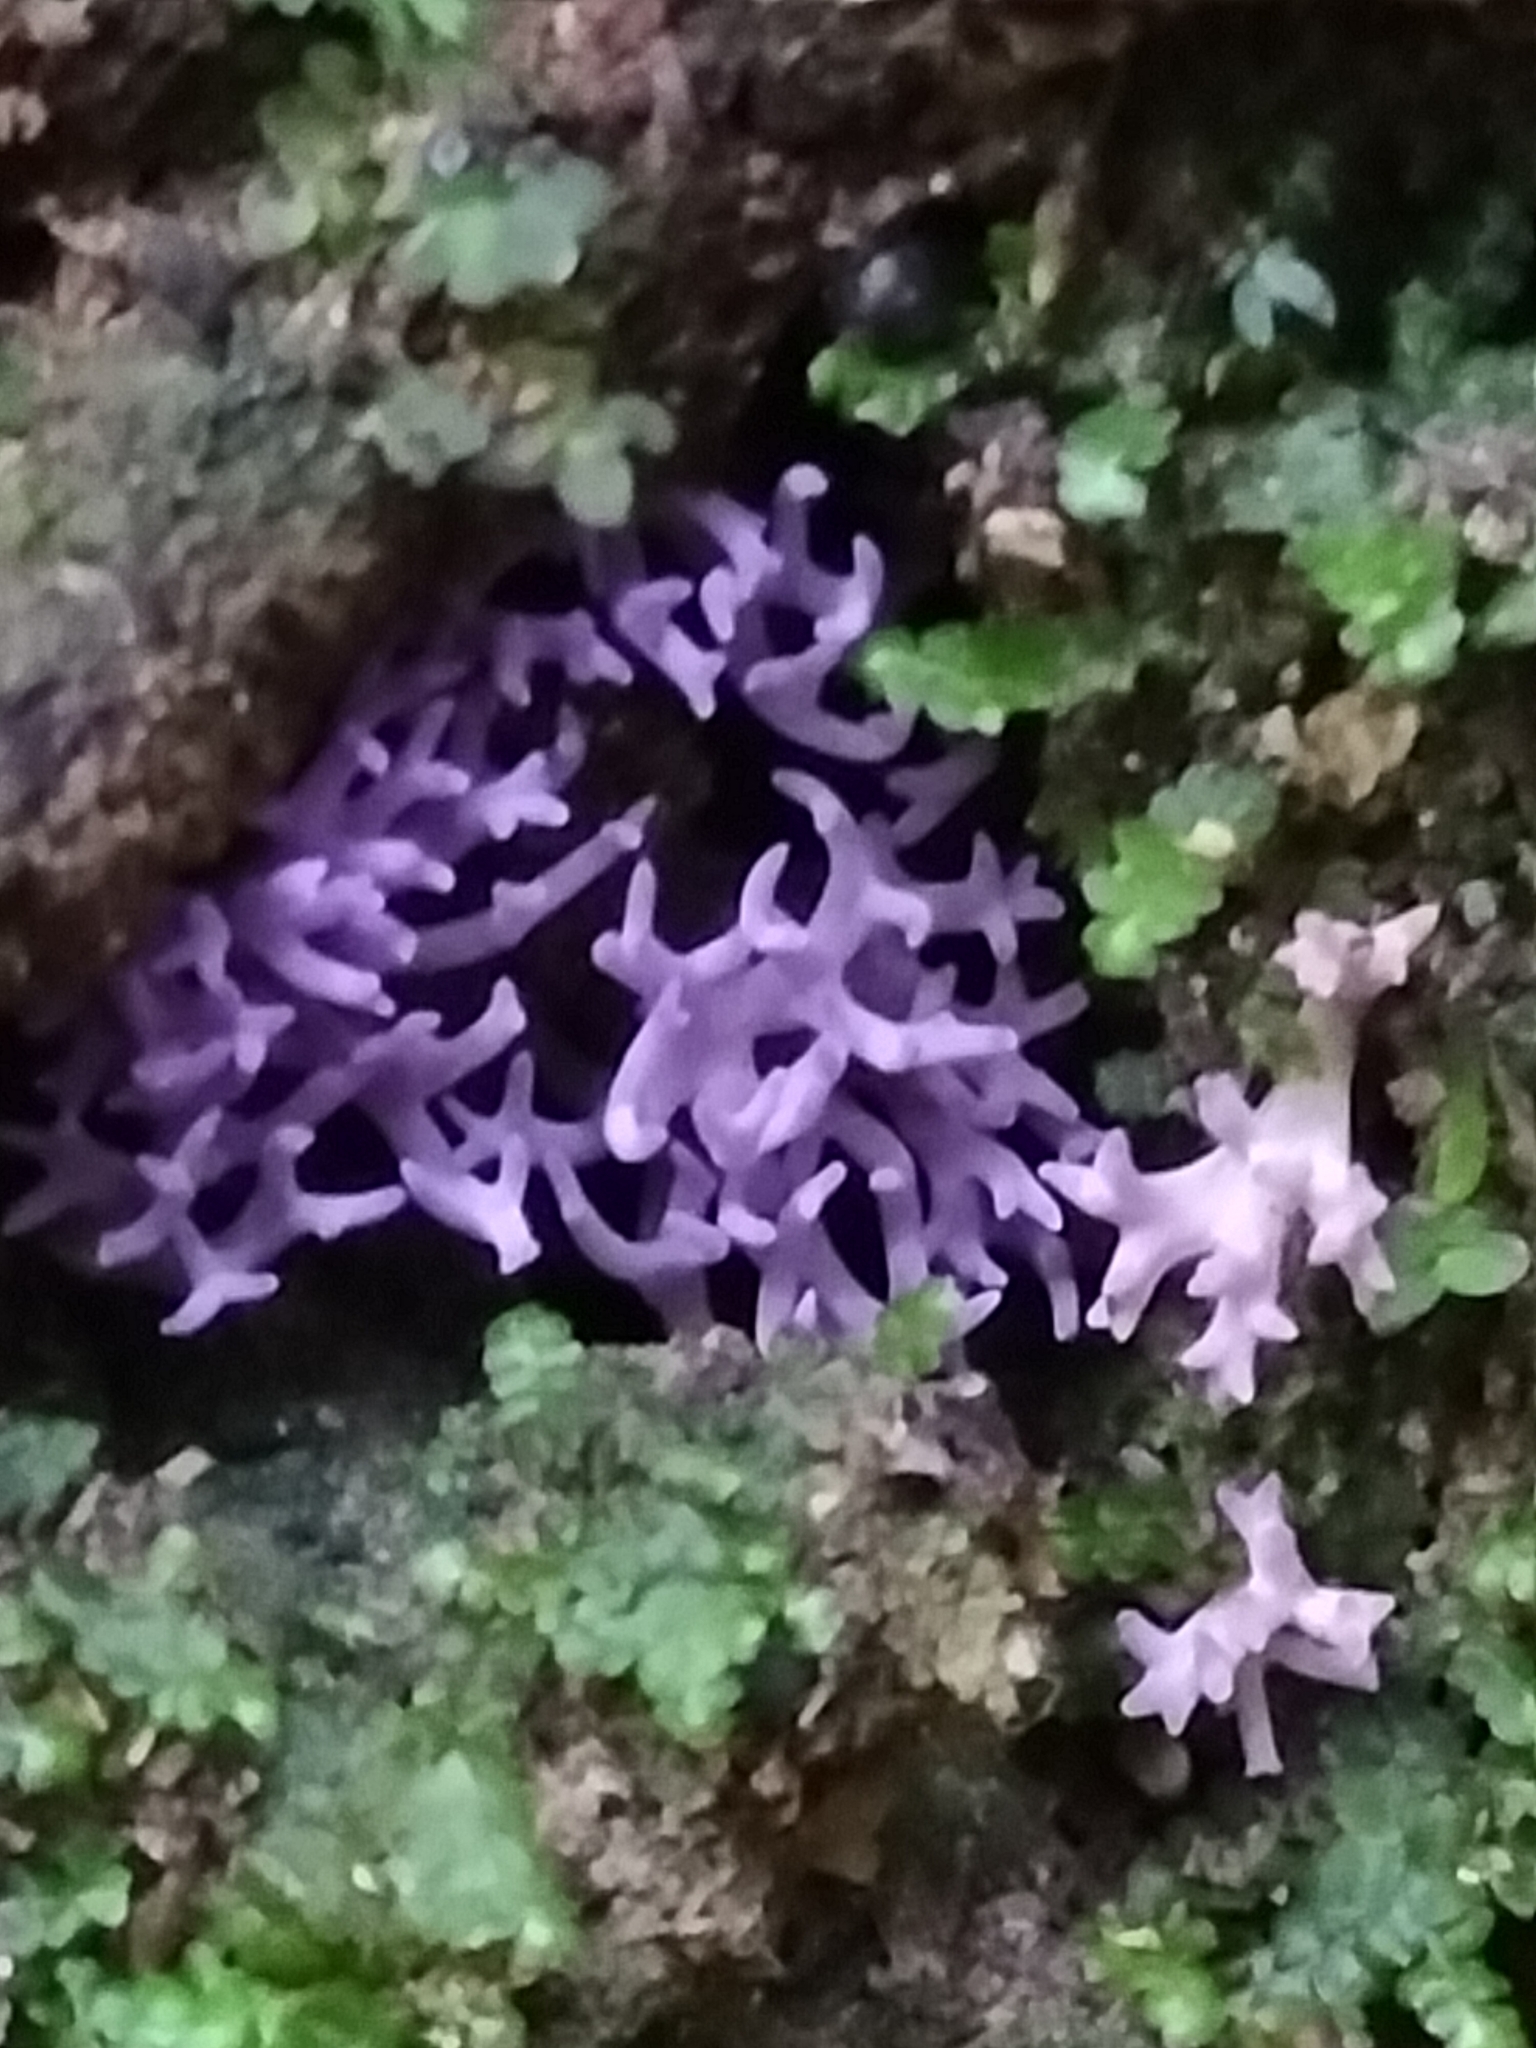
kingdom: Fungi
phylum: Basidiomycota
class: Agaricomycetes
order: Agaricales
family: Clavariaceae
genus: Ramariopsis
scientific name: Ramariopsis pulchella
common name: Lilac coral
